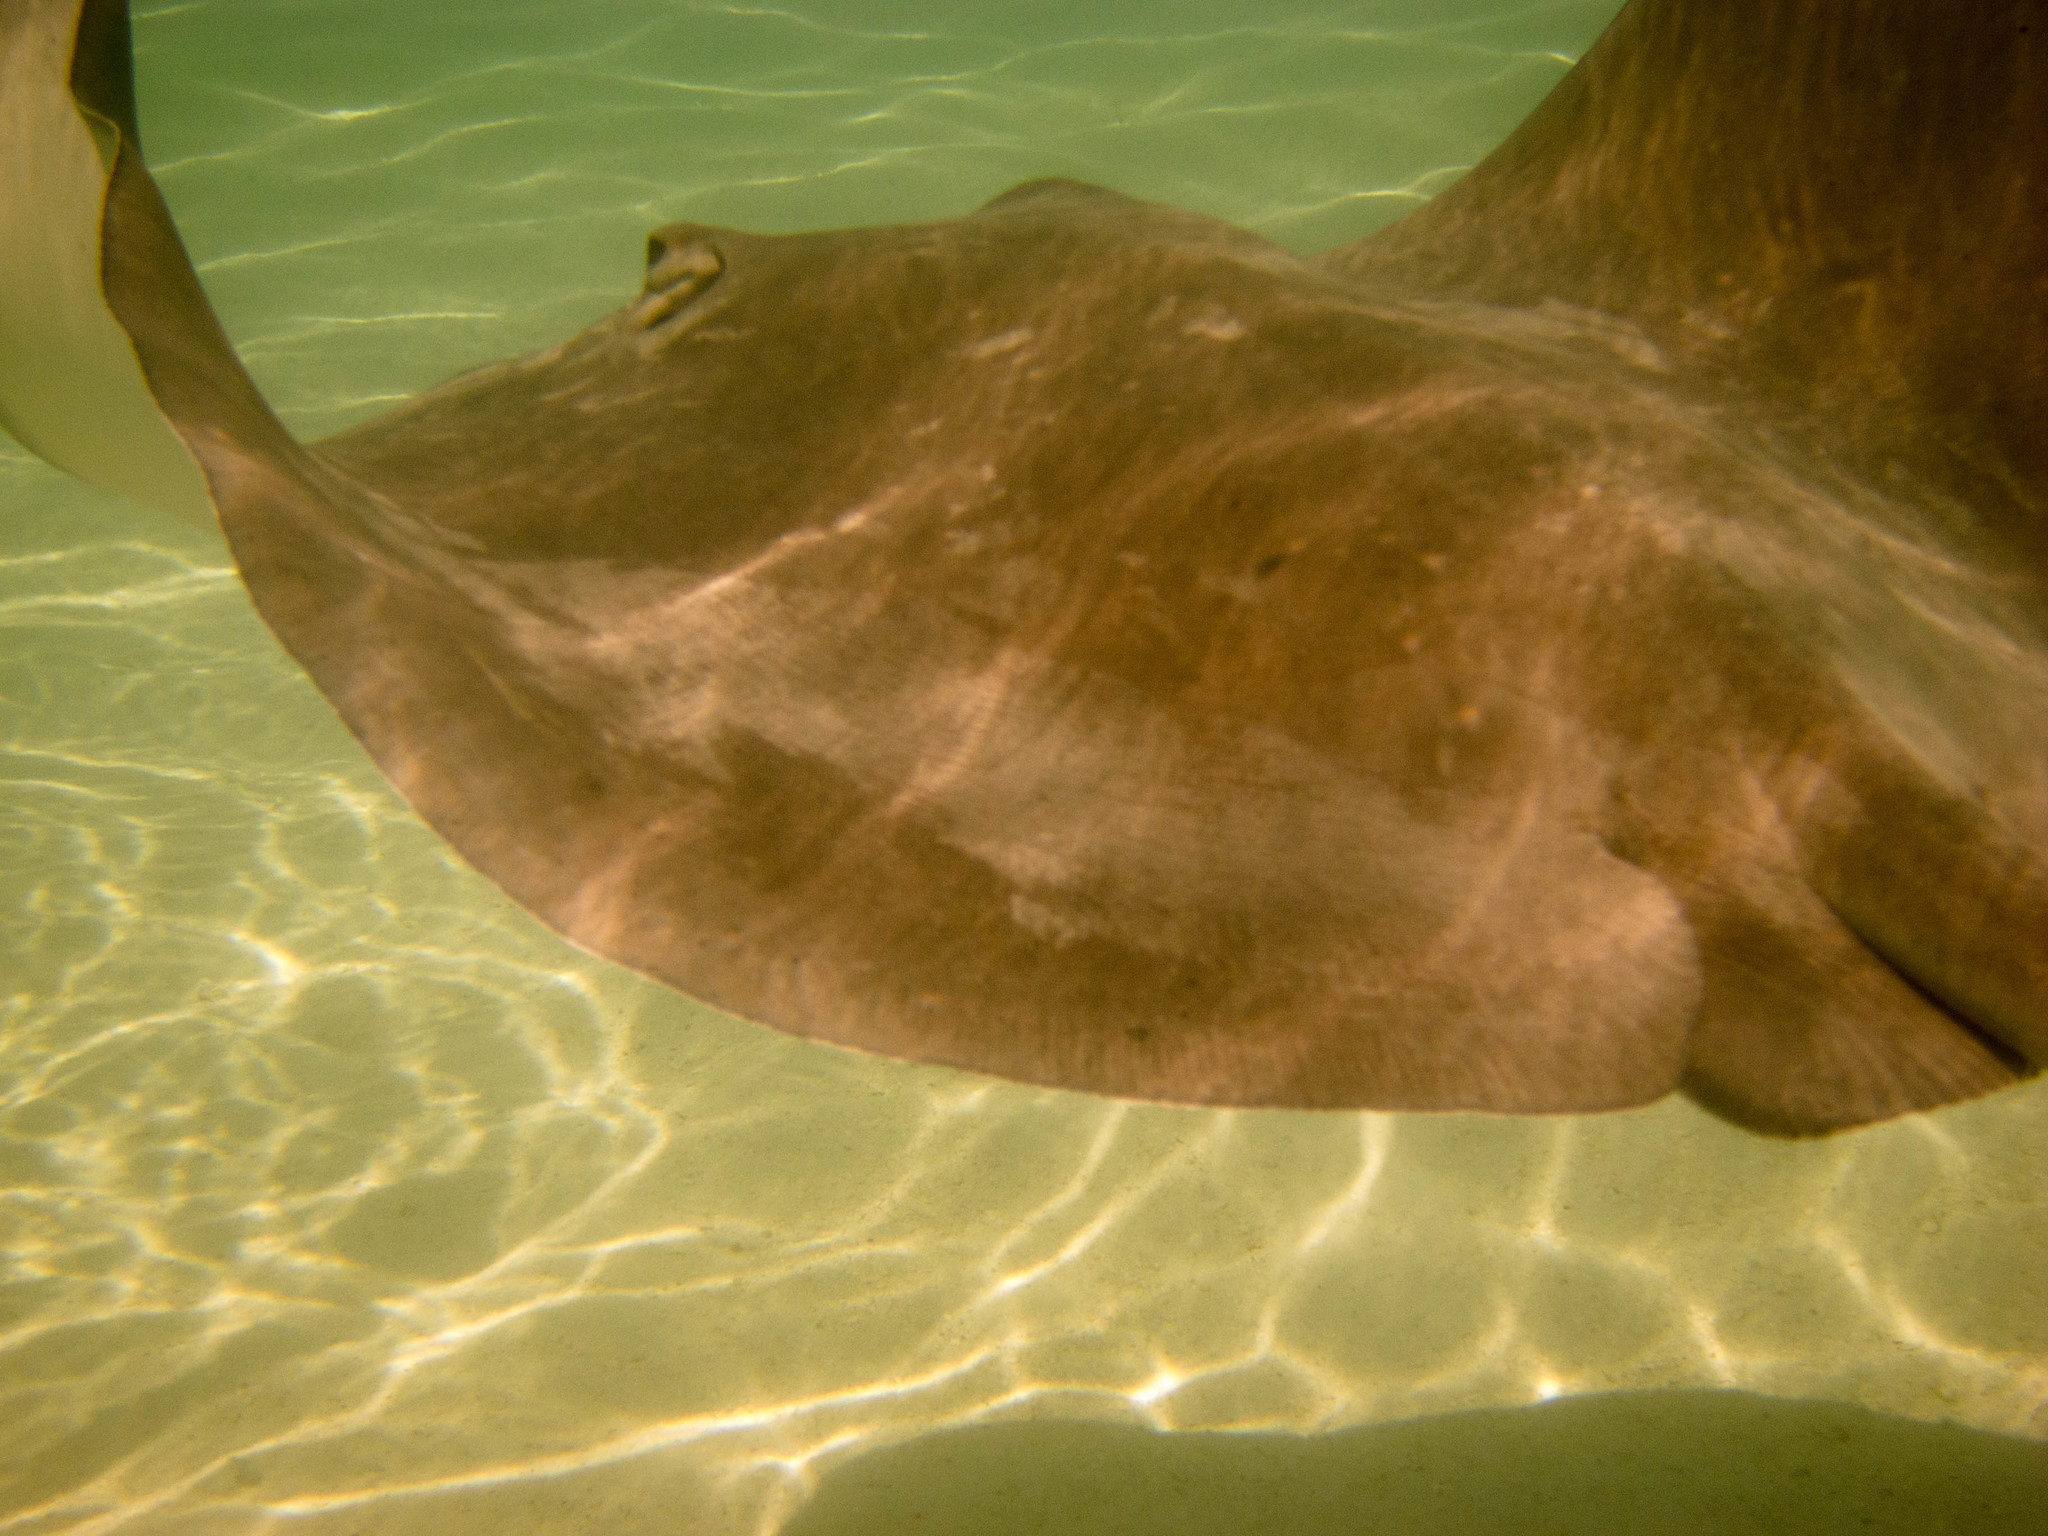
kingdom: Animalia
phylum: Chordata
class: Elasmobranchii
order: Myliobatiformes
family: Dasyatidae
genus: Pateobatis
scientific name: Pateobatis fai
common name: Pink whipray
